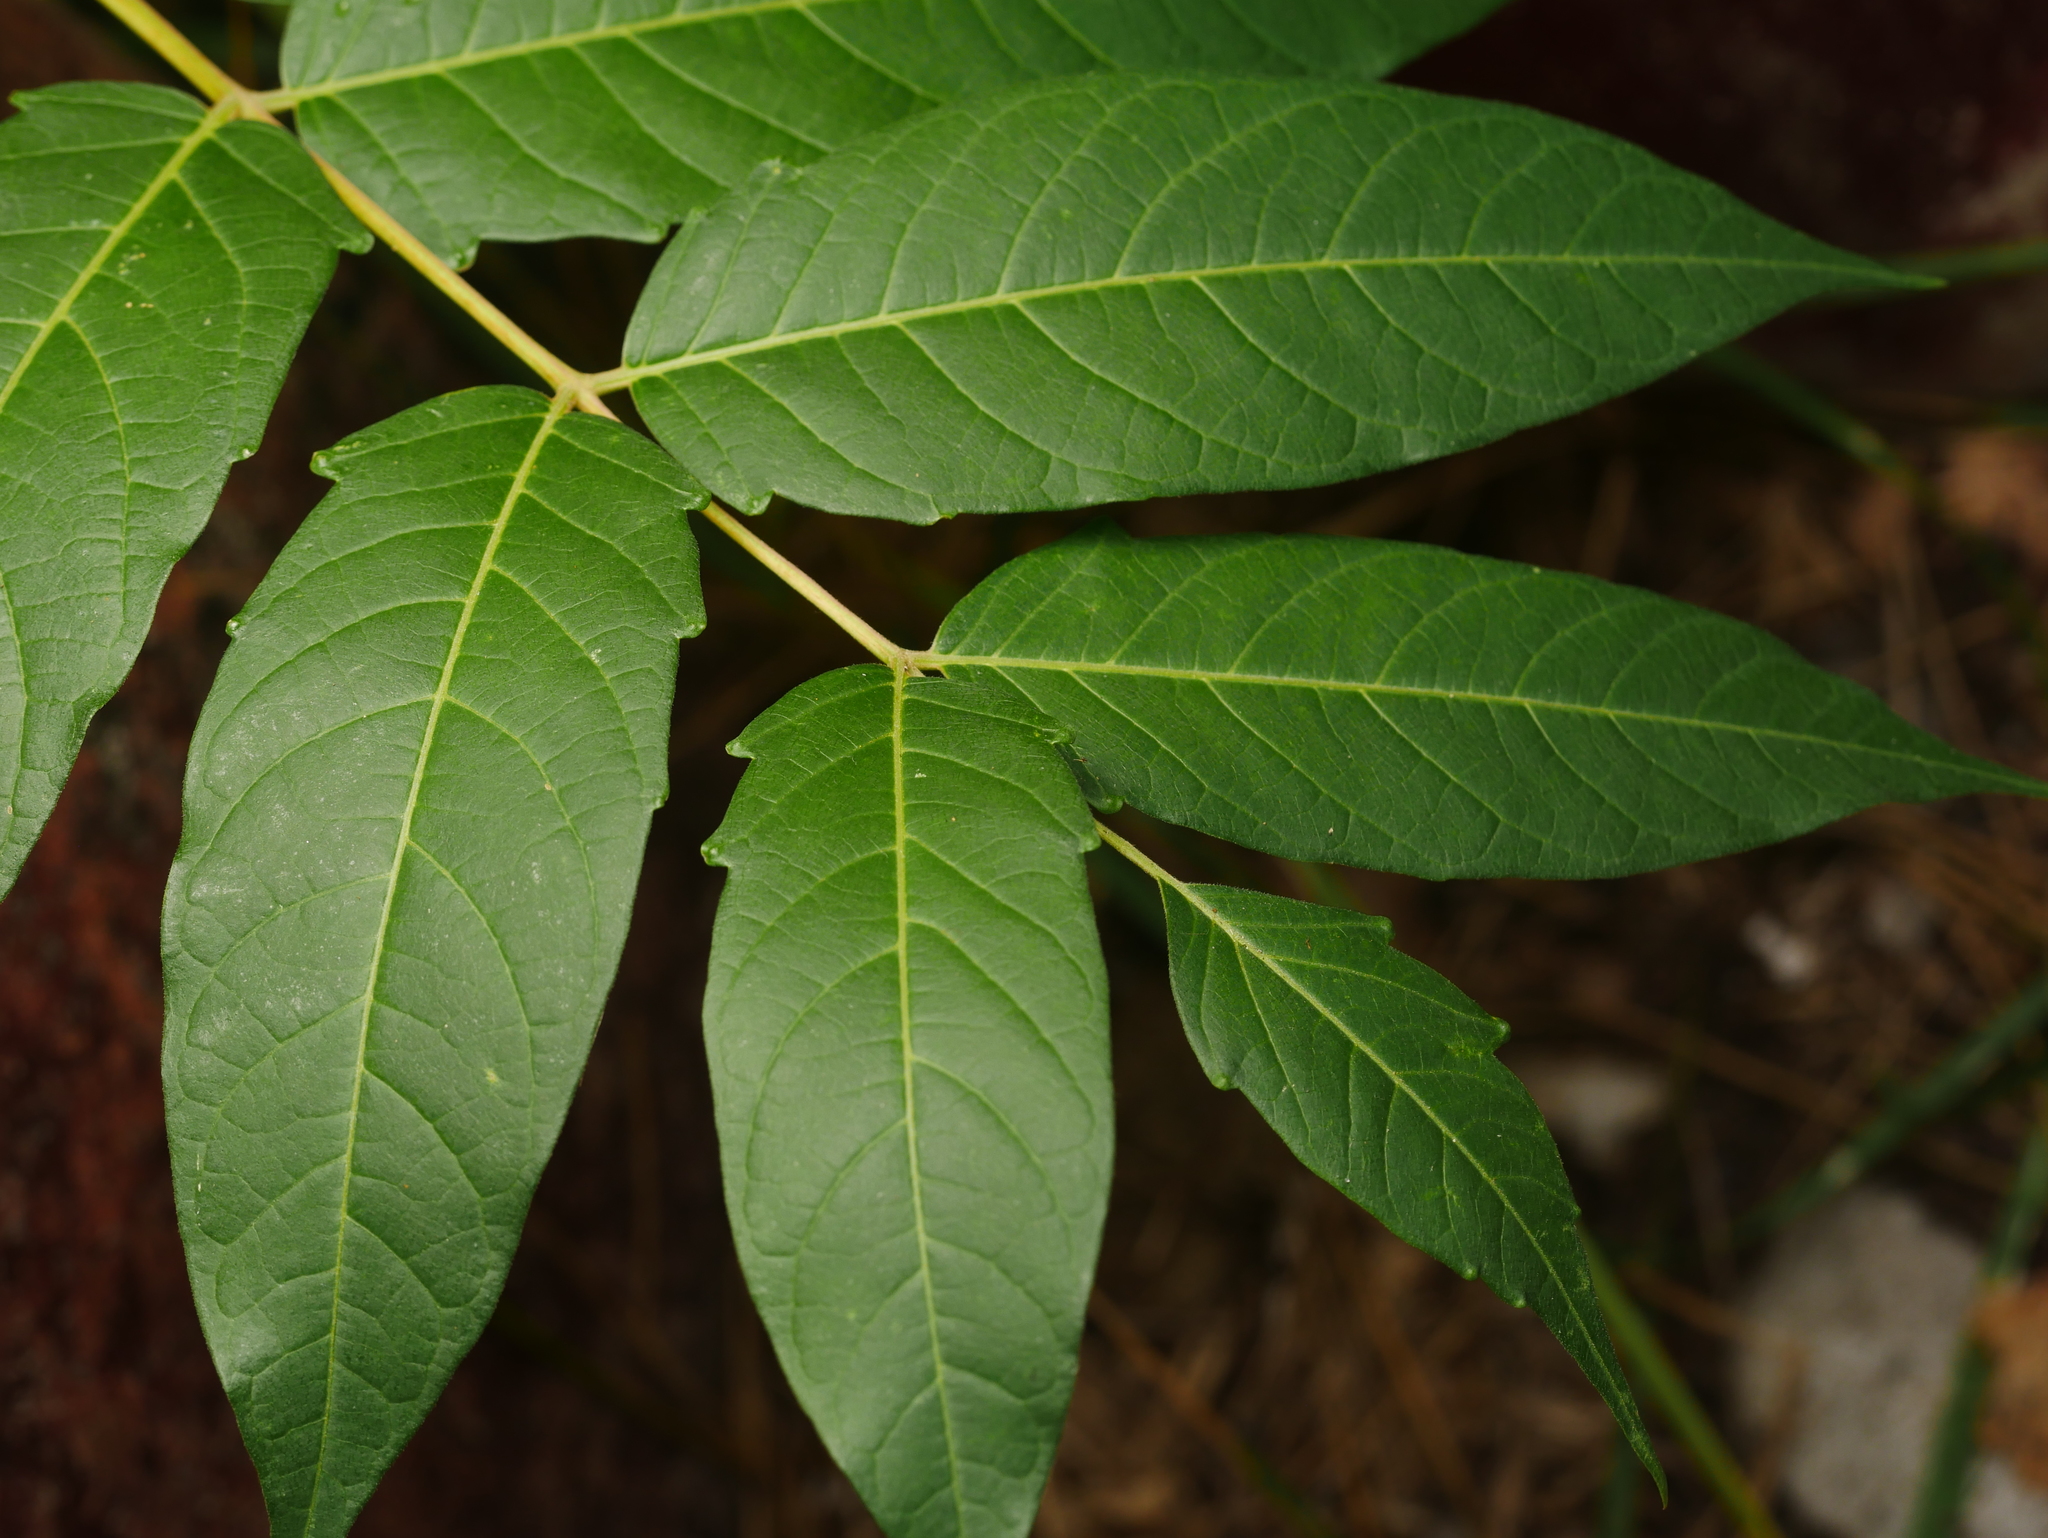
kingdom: Plantae
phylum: Tracheophyta
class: Magnoliopsida
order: Sapindales
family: Simaroubaceae
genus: Ailanthus
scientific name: Ailanthus altissima
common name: Tree-of-heaven
